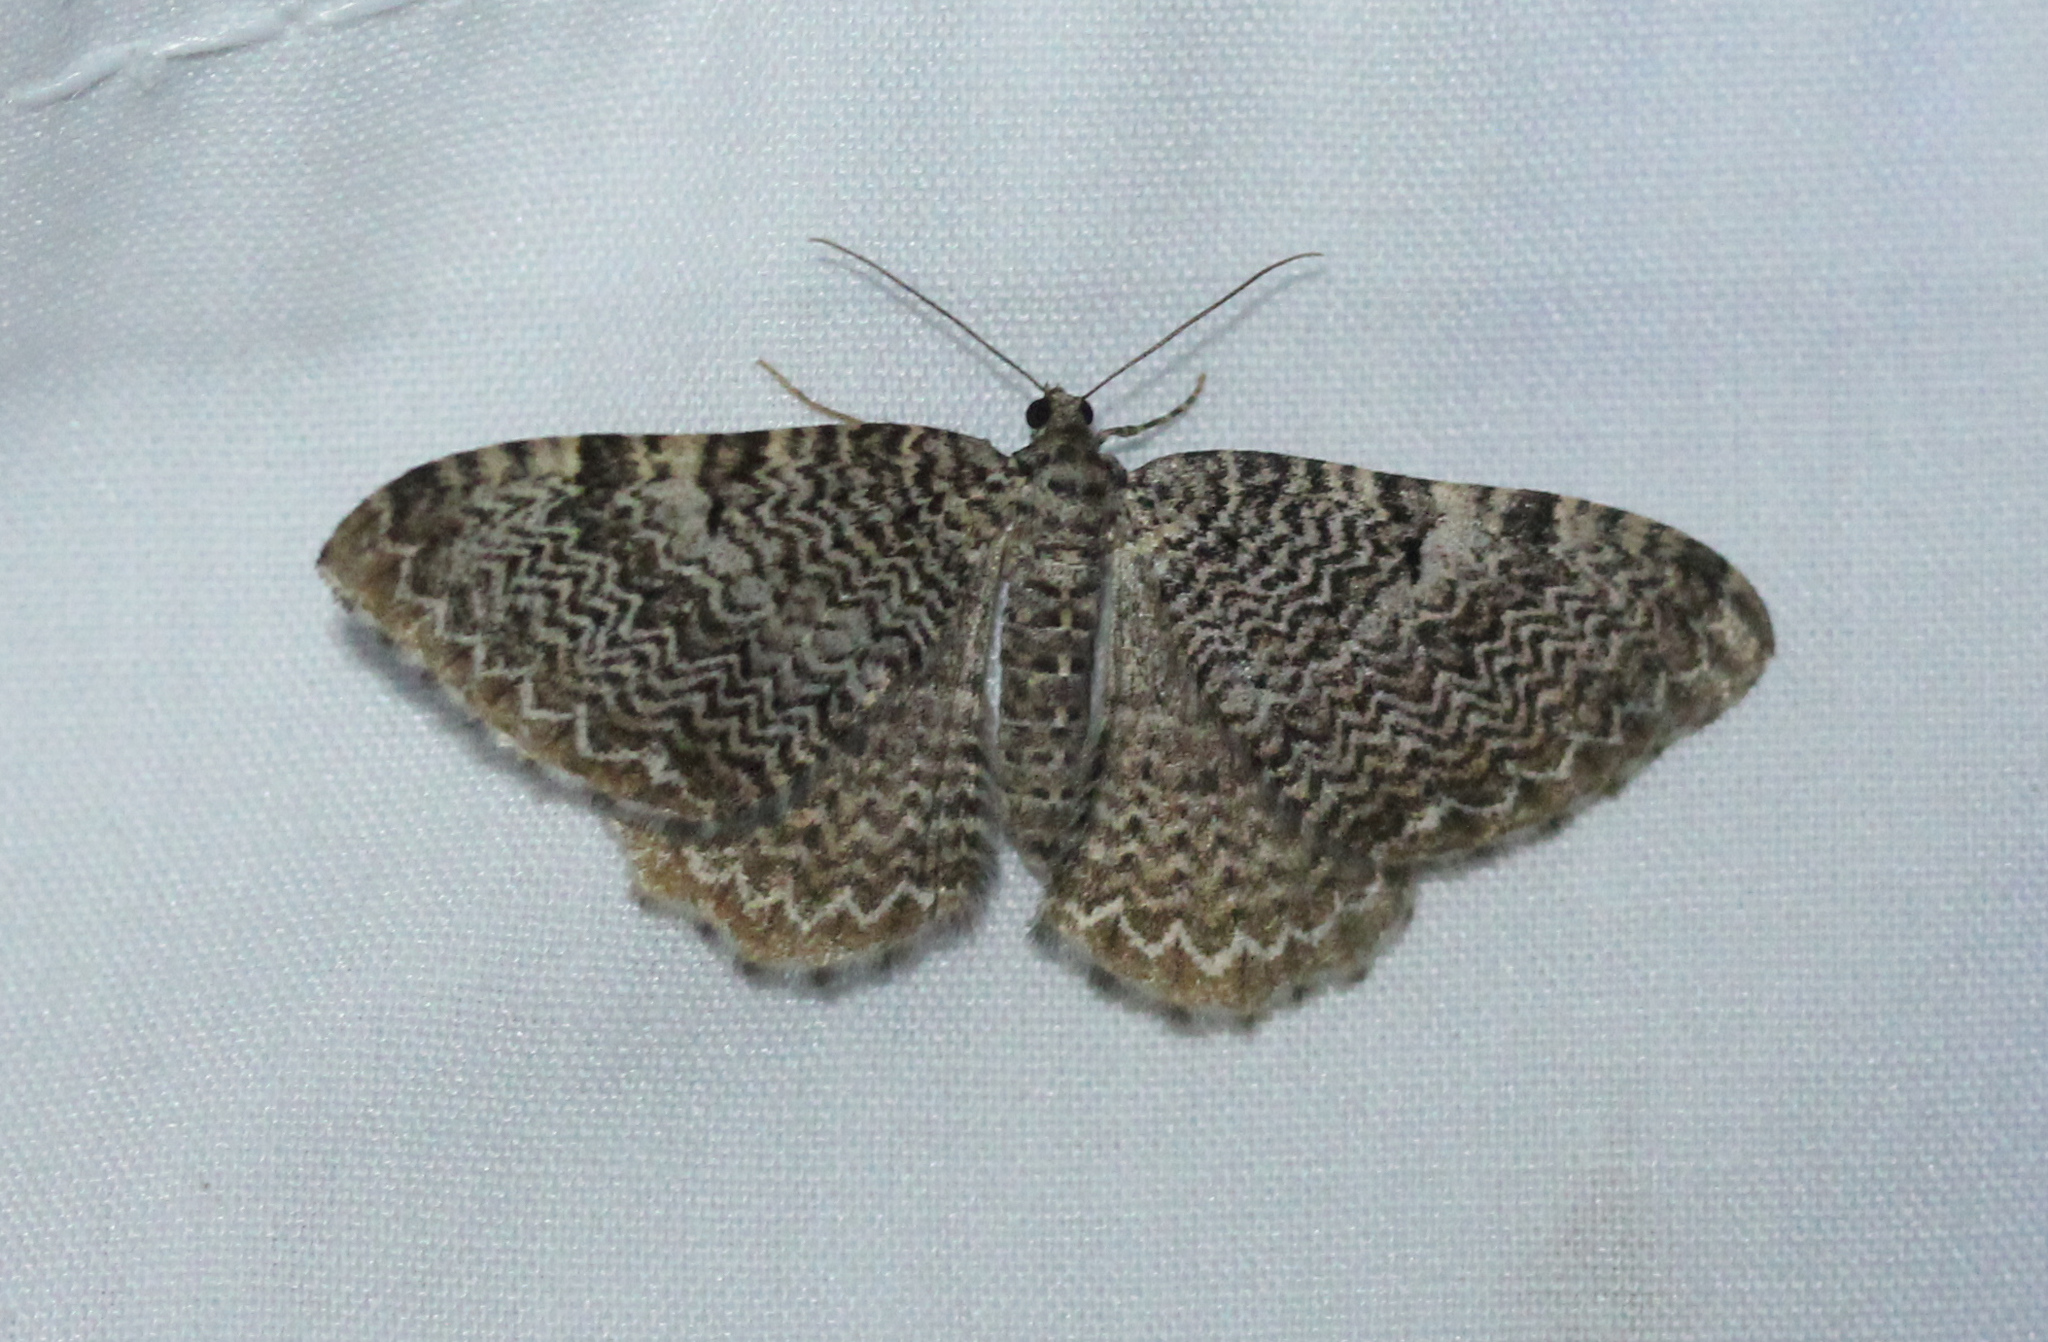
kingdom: Animalia
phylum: Arthropoda
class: Insecta
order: Lepidoptera
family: Geometridae
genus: Rheumaptera
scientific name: Rheumaptera
